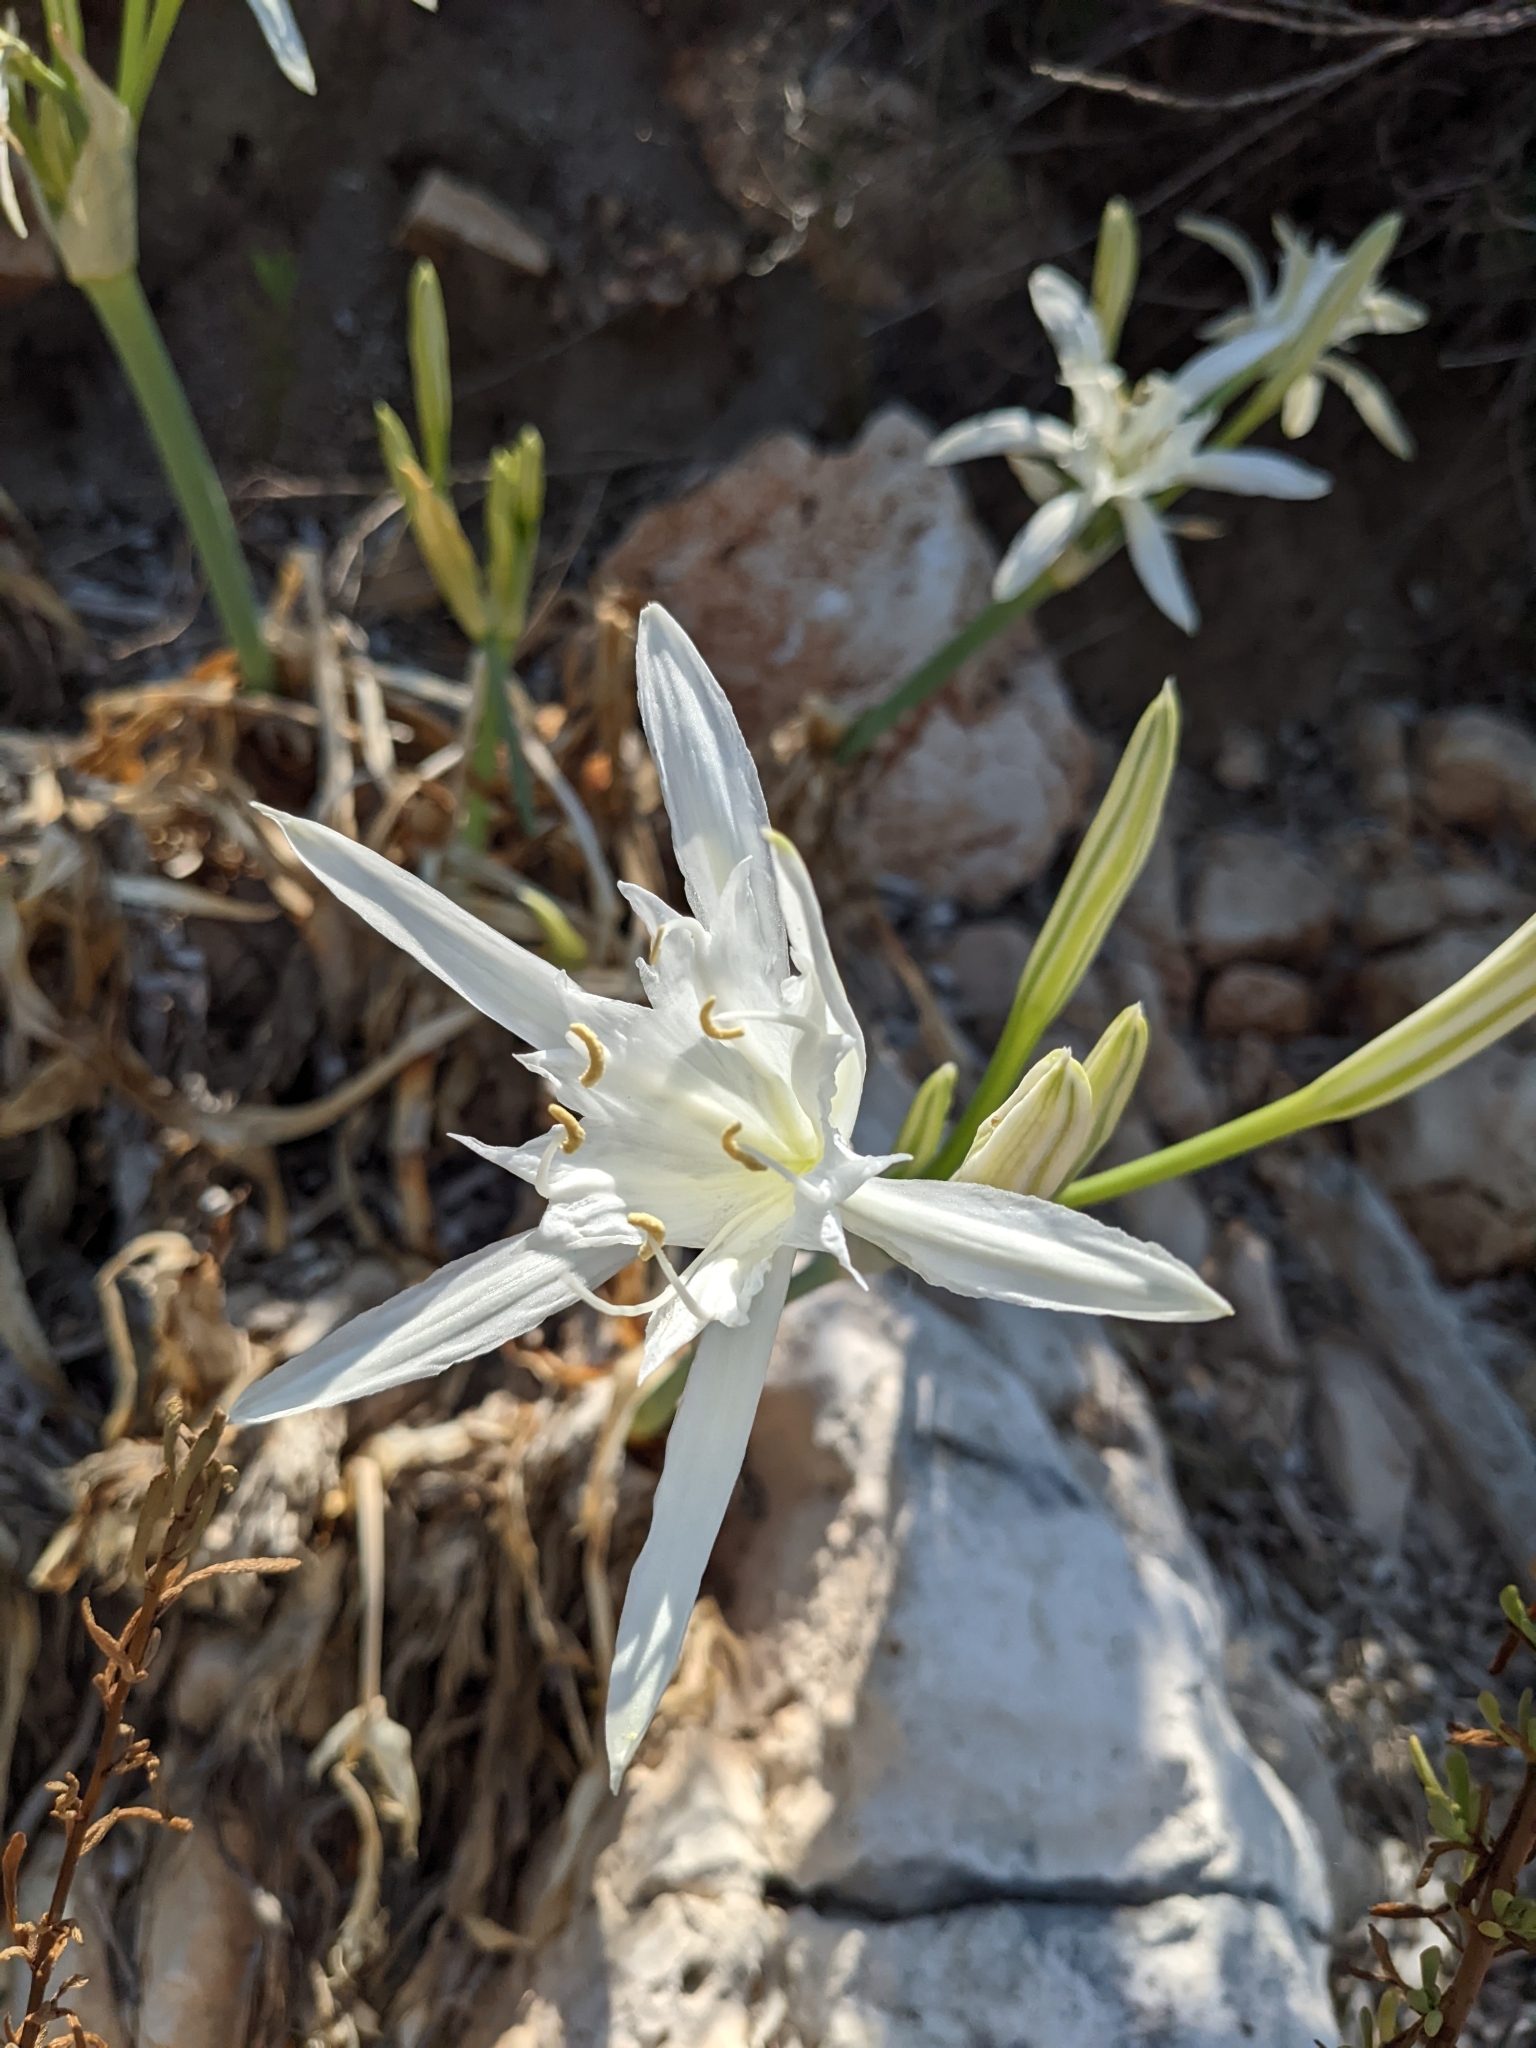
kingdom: Plantae
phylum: Tracheophyta
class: Liliopsida
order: Asparagales
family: Amaryllidaceae
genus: Pancratium
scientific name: Pancratium maritimum
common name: Sea-daffodil
